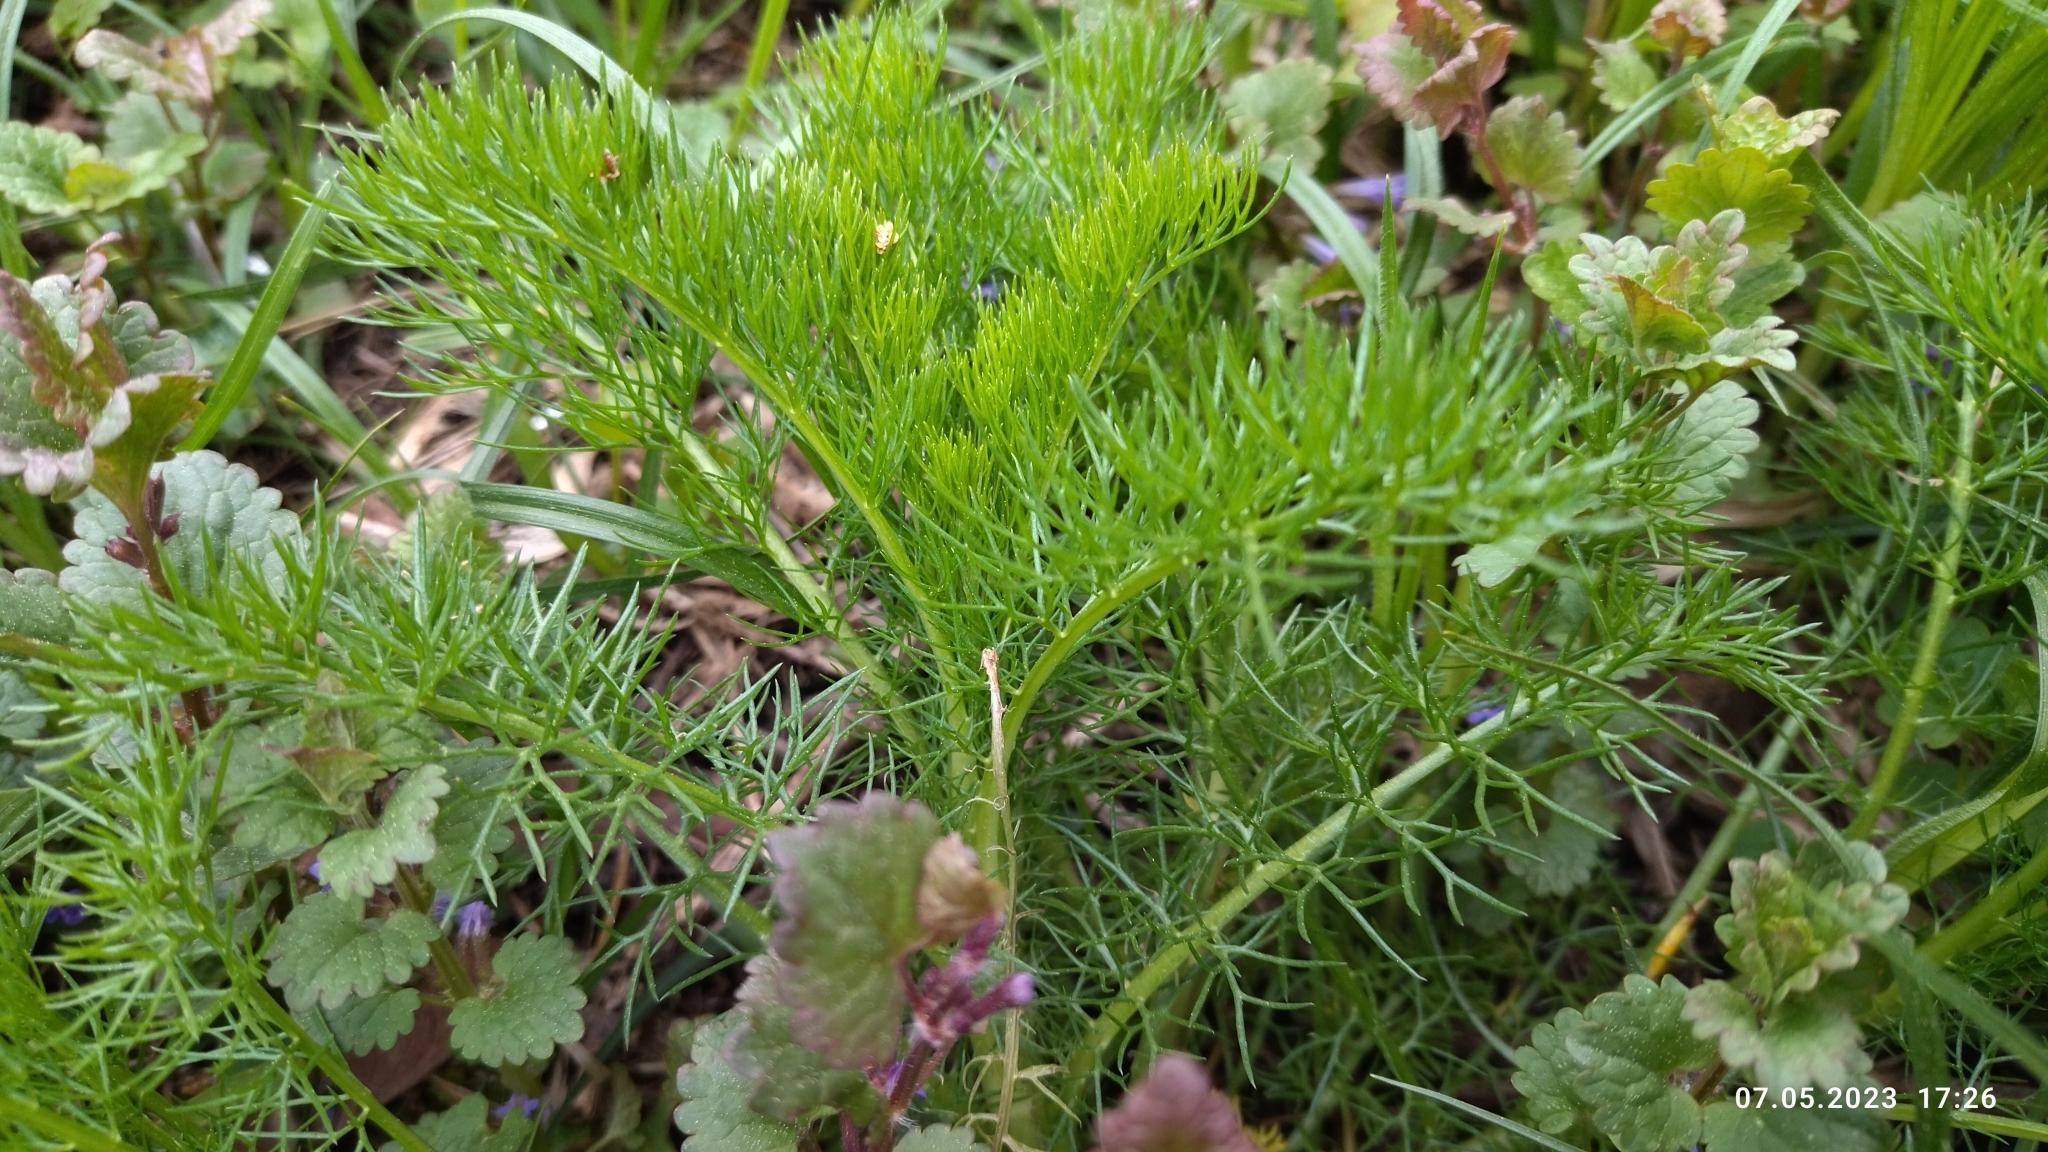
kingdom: Plantae
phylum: Tracheophyta
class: Magnoliopsida
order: Asterales
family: Asteraceae
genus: Tripleurospermum
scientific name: Tripleurospermum inodorum
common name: Scentless mayweed
